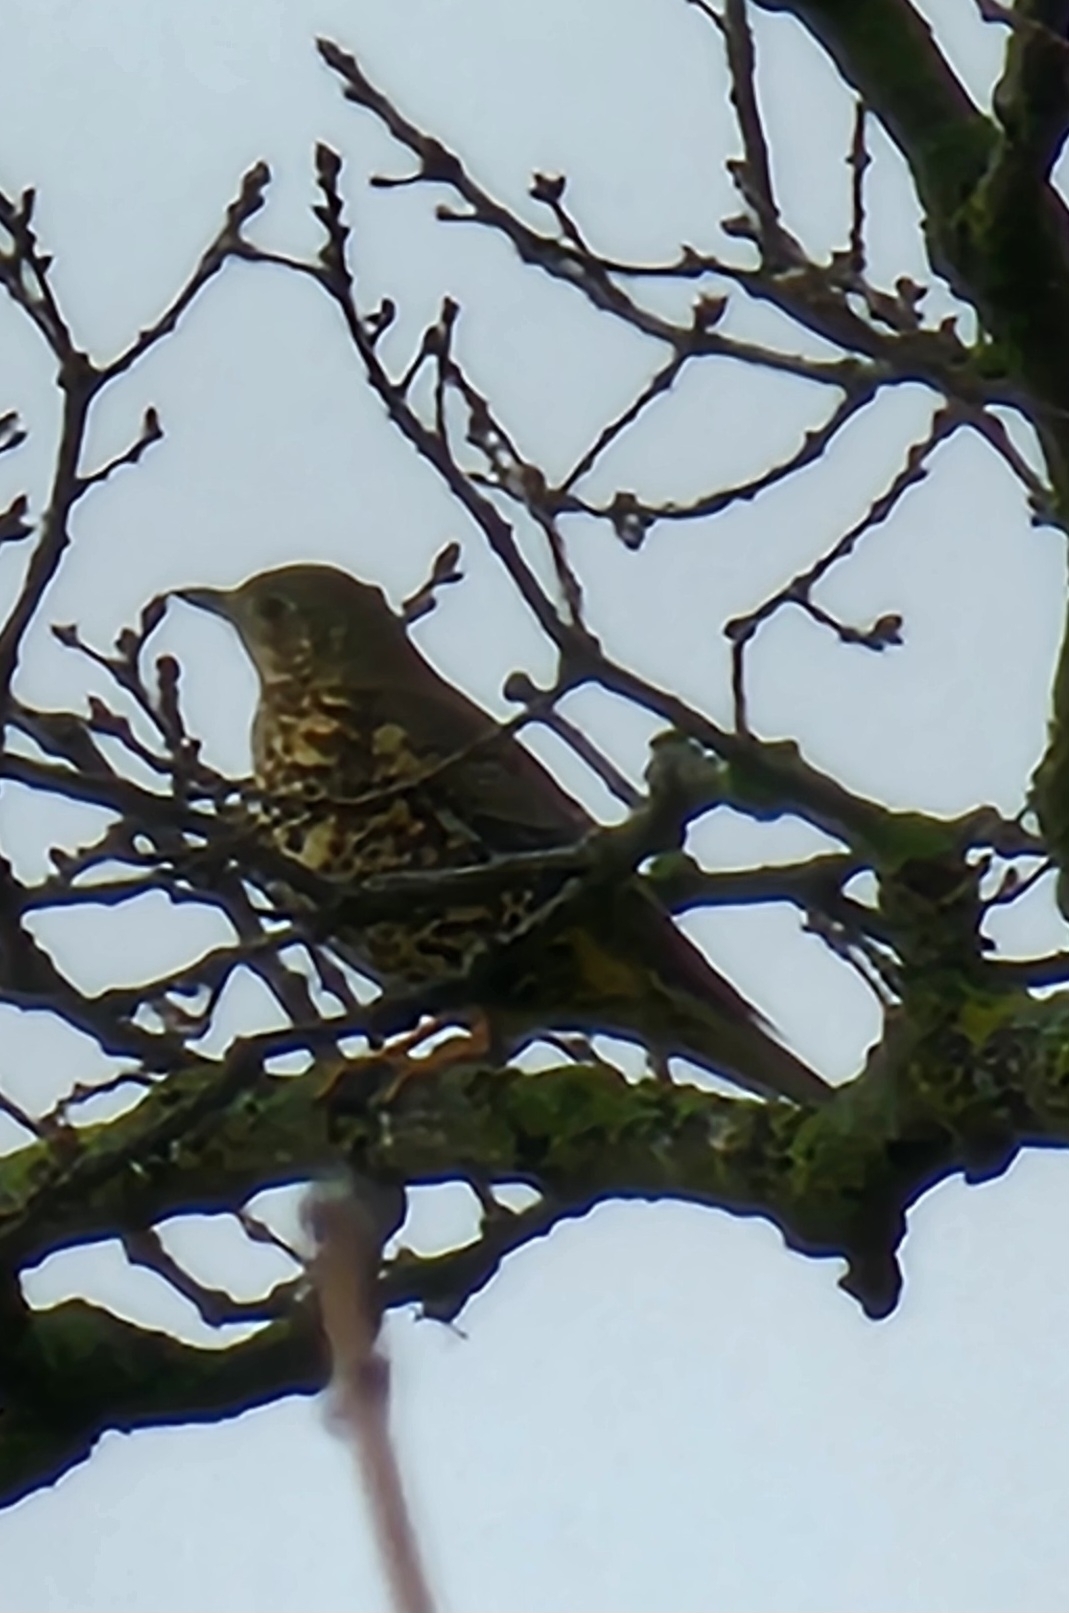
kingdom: Animalia
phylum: Chordata
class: Aves
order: Passeriformes
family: Turdidae
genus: Turdus
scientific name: Turdus viscivorus
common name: Mistle thrush
